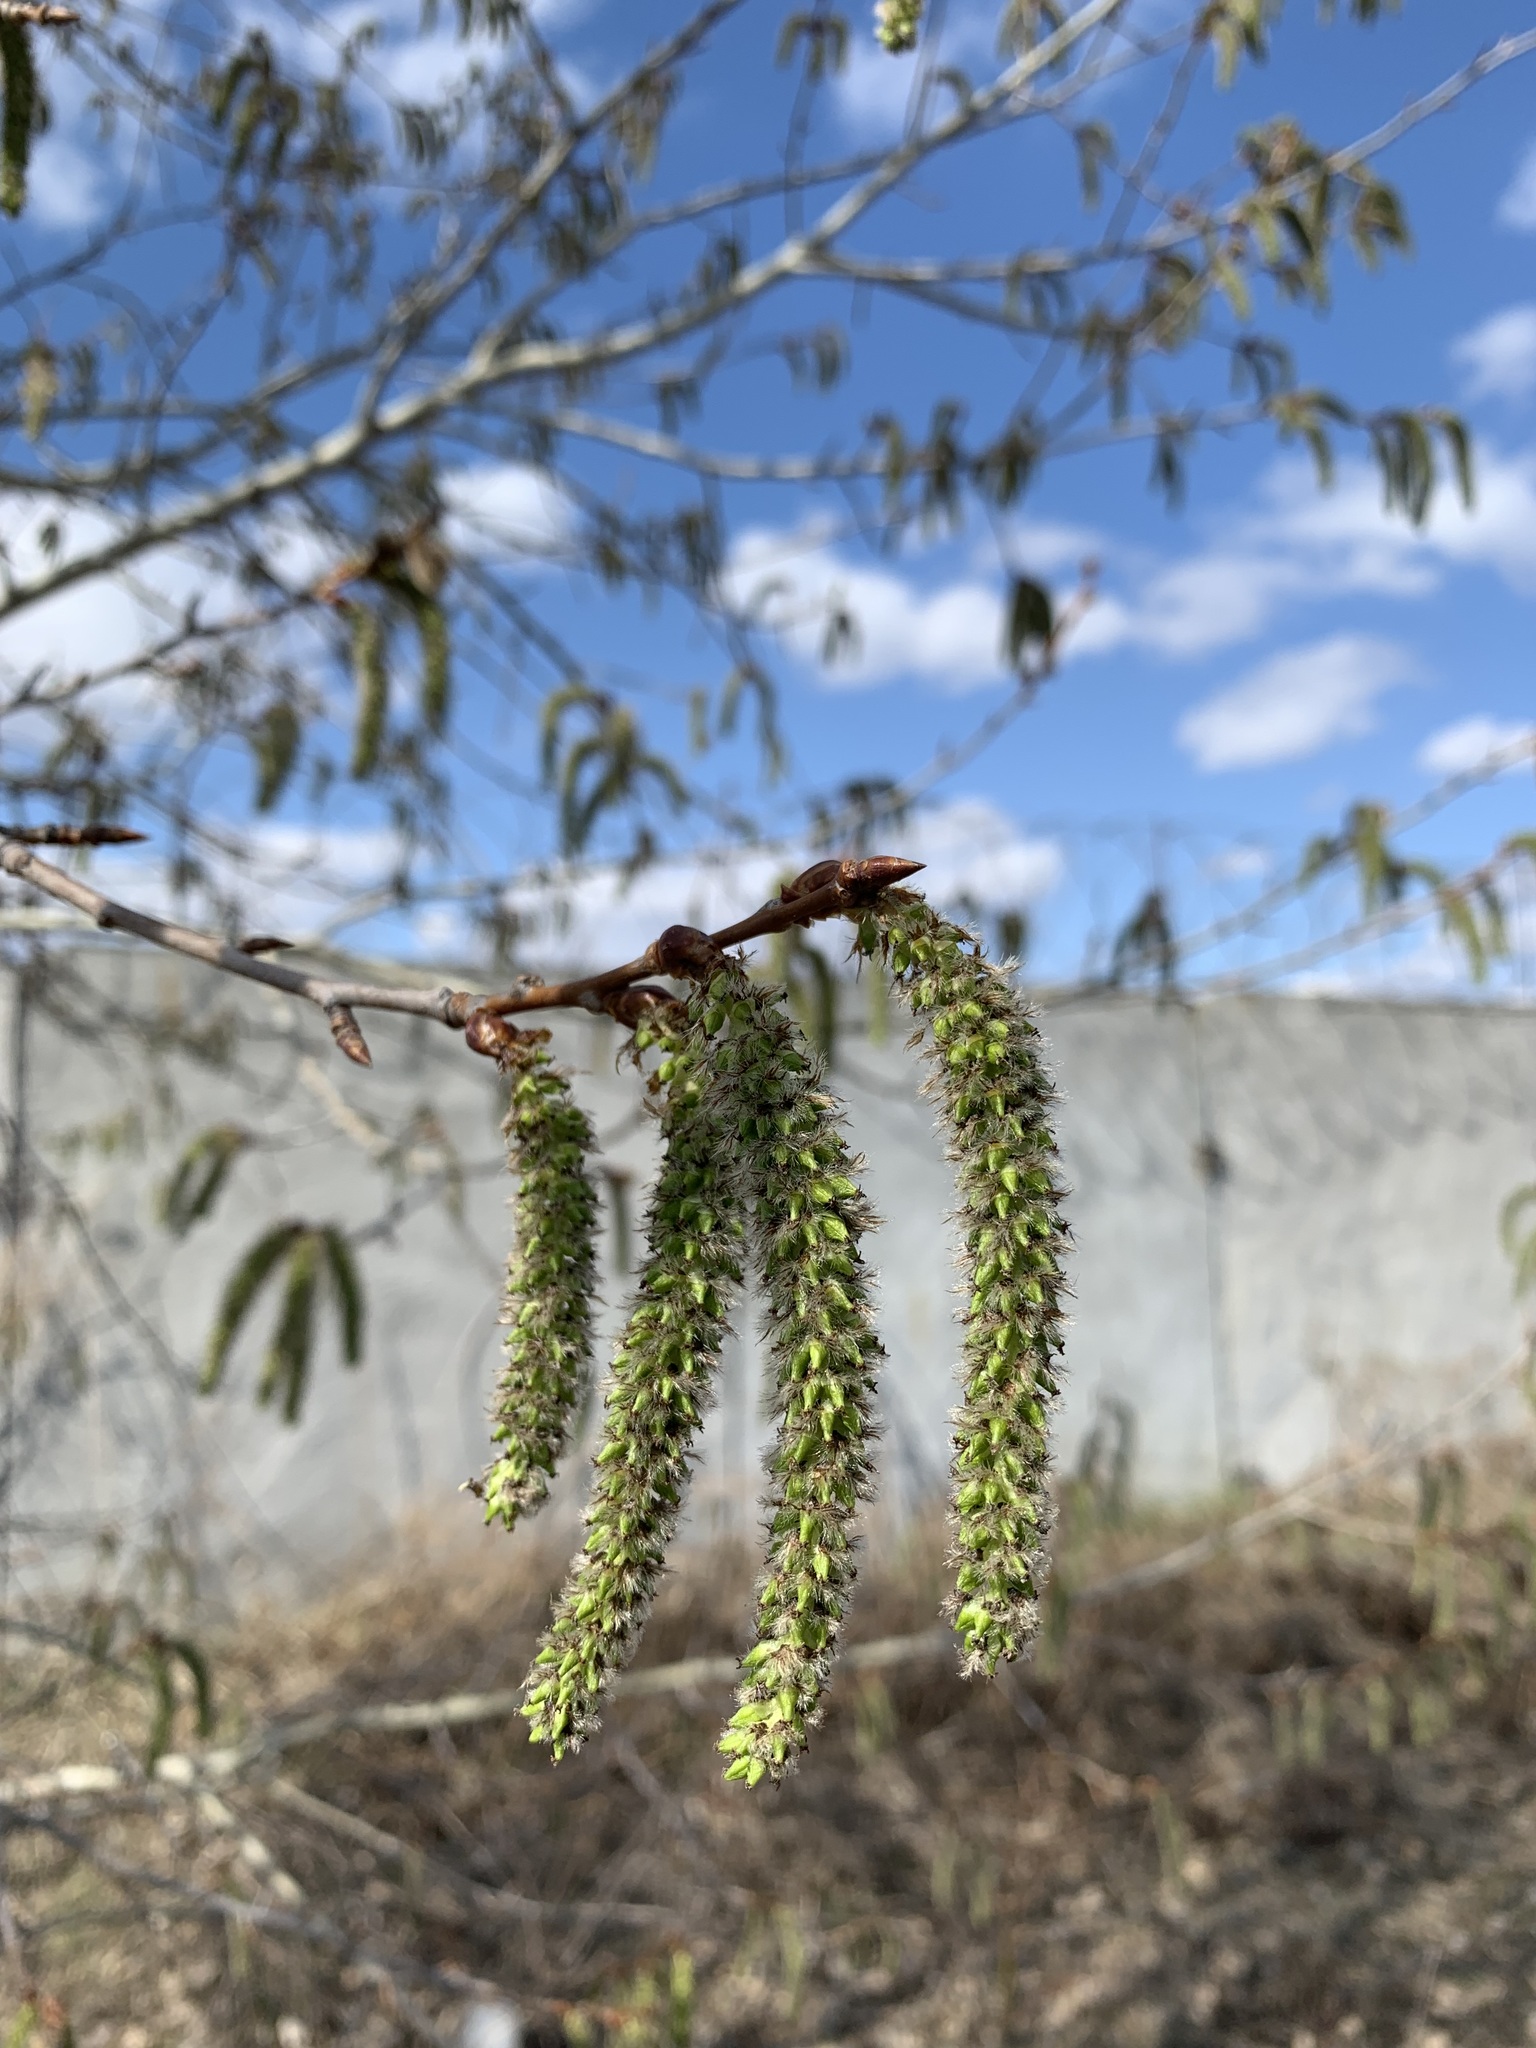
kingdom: Plantae
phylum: Tracheophyta
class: Magnoliopsida
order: Malpighiales
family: Salicaceae
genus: Populus
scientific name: Populus tremula
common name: European aspen
